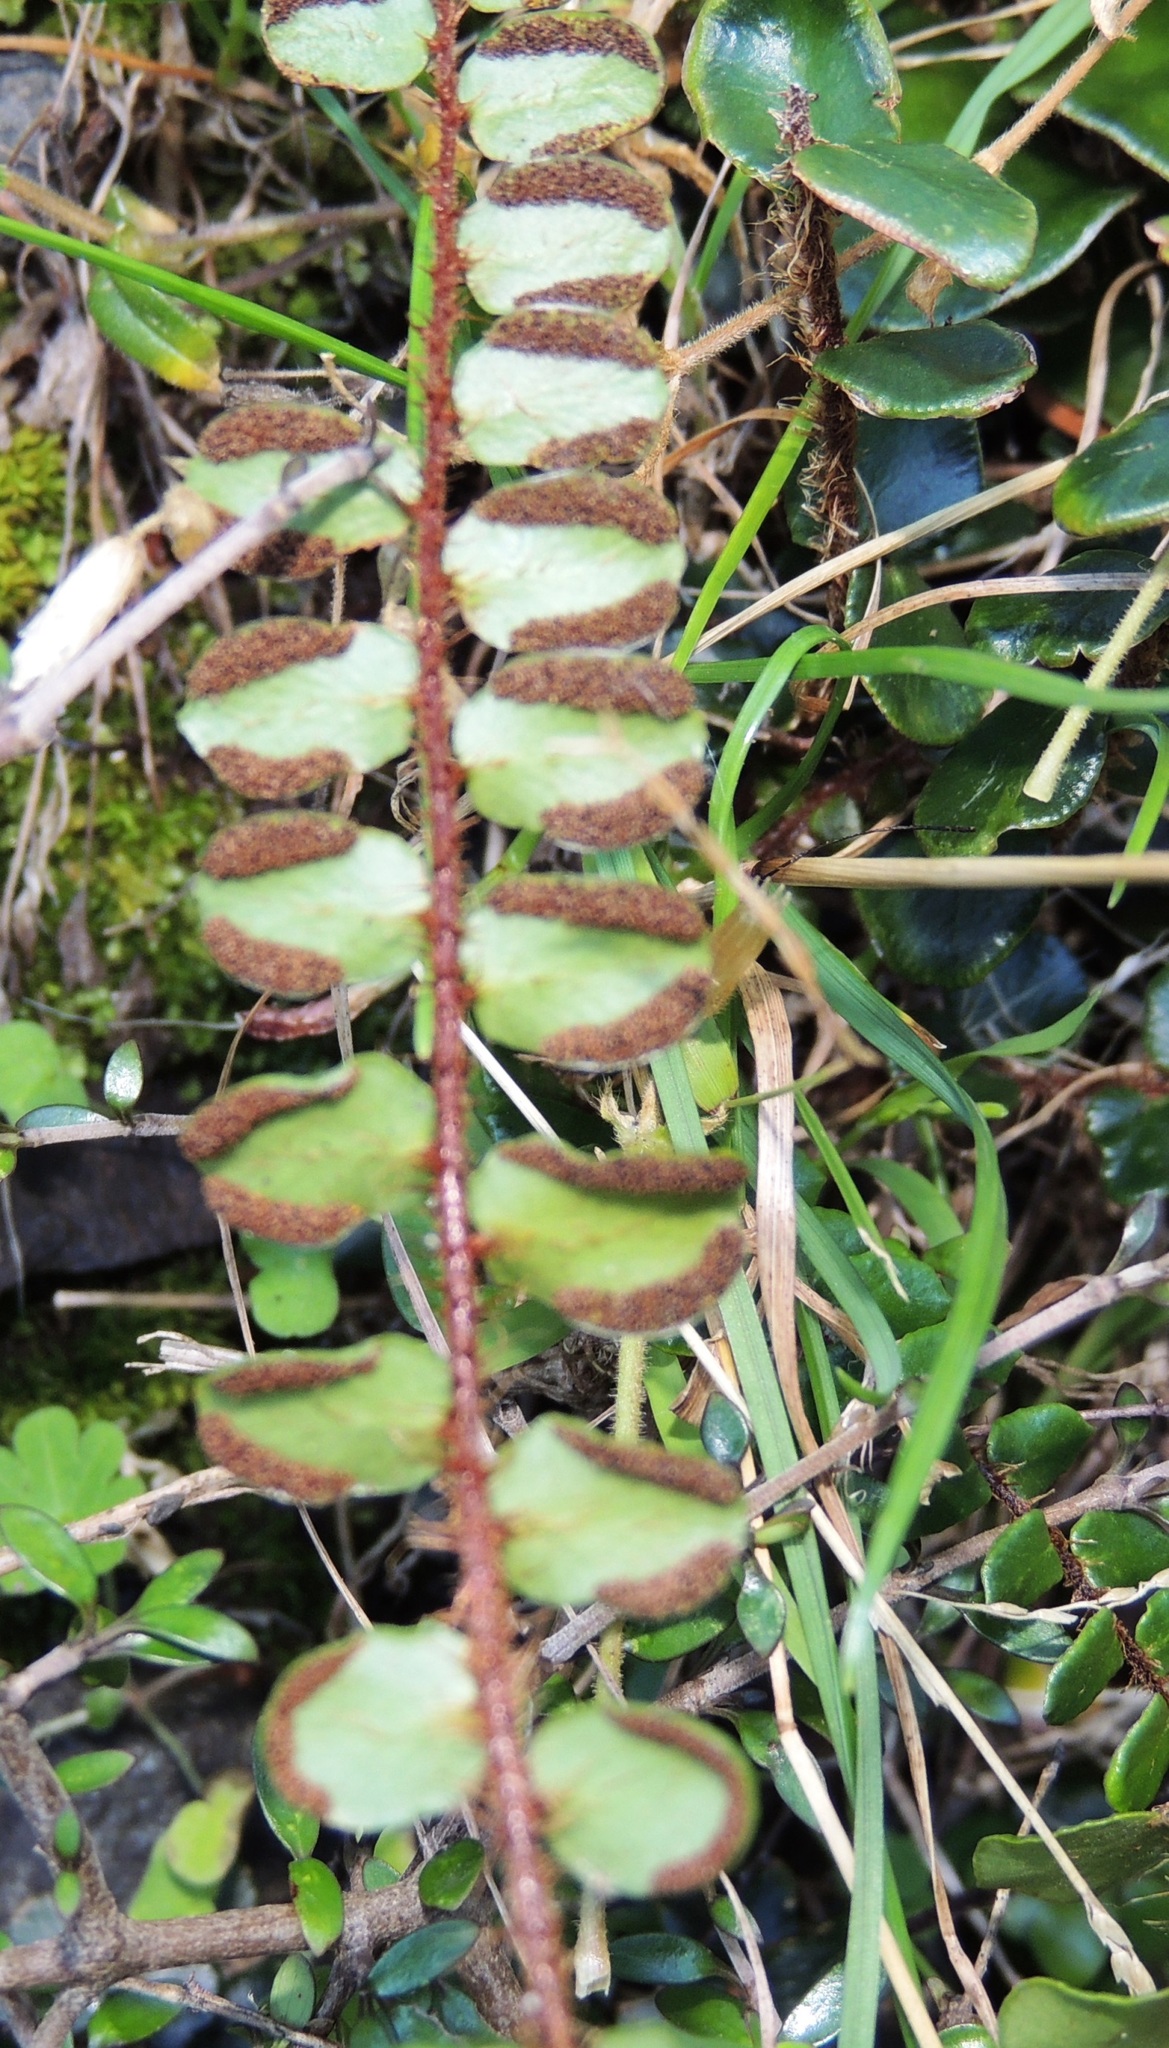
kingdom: Plantae
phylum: Tracheophyta
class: Polypodiopsida
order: Polypodiales
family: Pteridaceae
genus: Pellaea
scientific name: Pellaea rotundifolia
